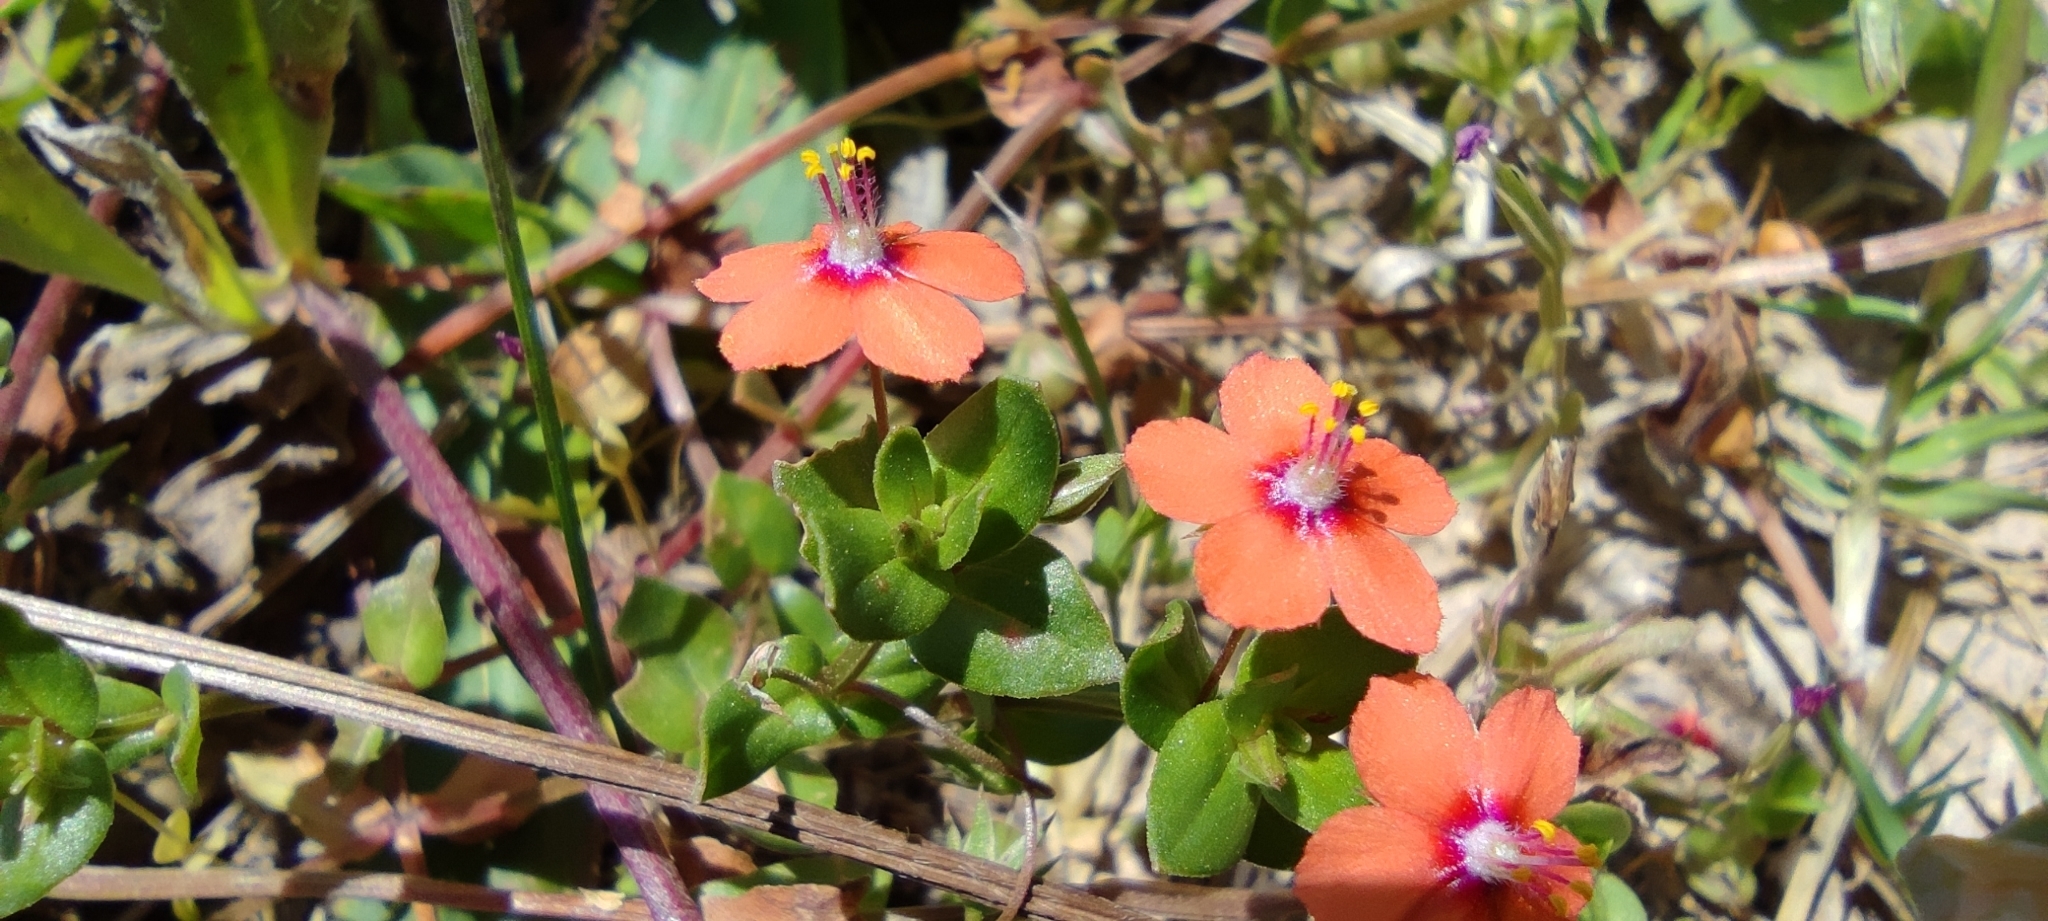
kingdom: Plantae
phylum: Tracheophyta
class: Magnoliopsida
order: Ericales
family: Primulaceae
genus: Lysimachia
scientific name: Lysimachia arvensis
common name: Scarlet pimpernel
